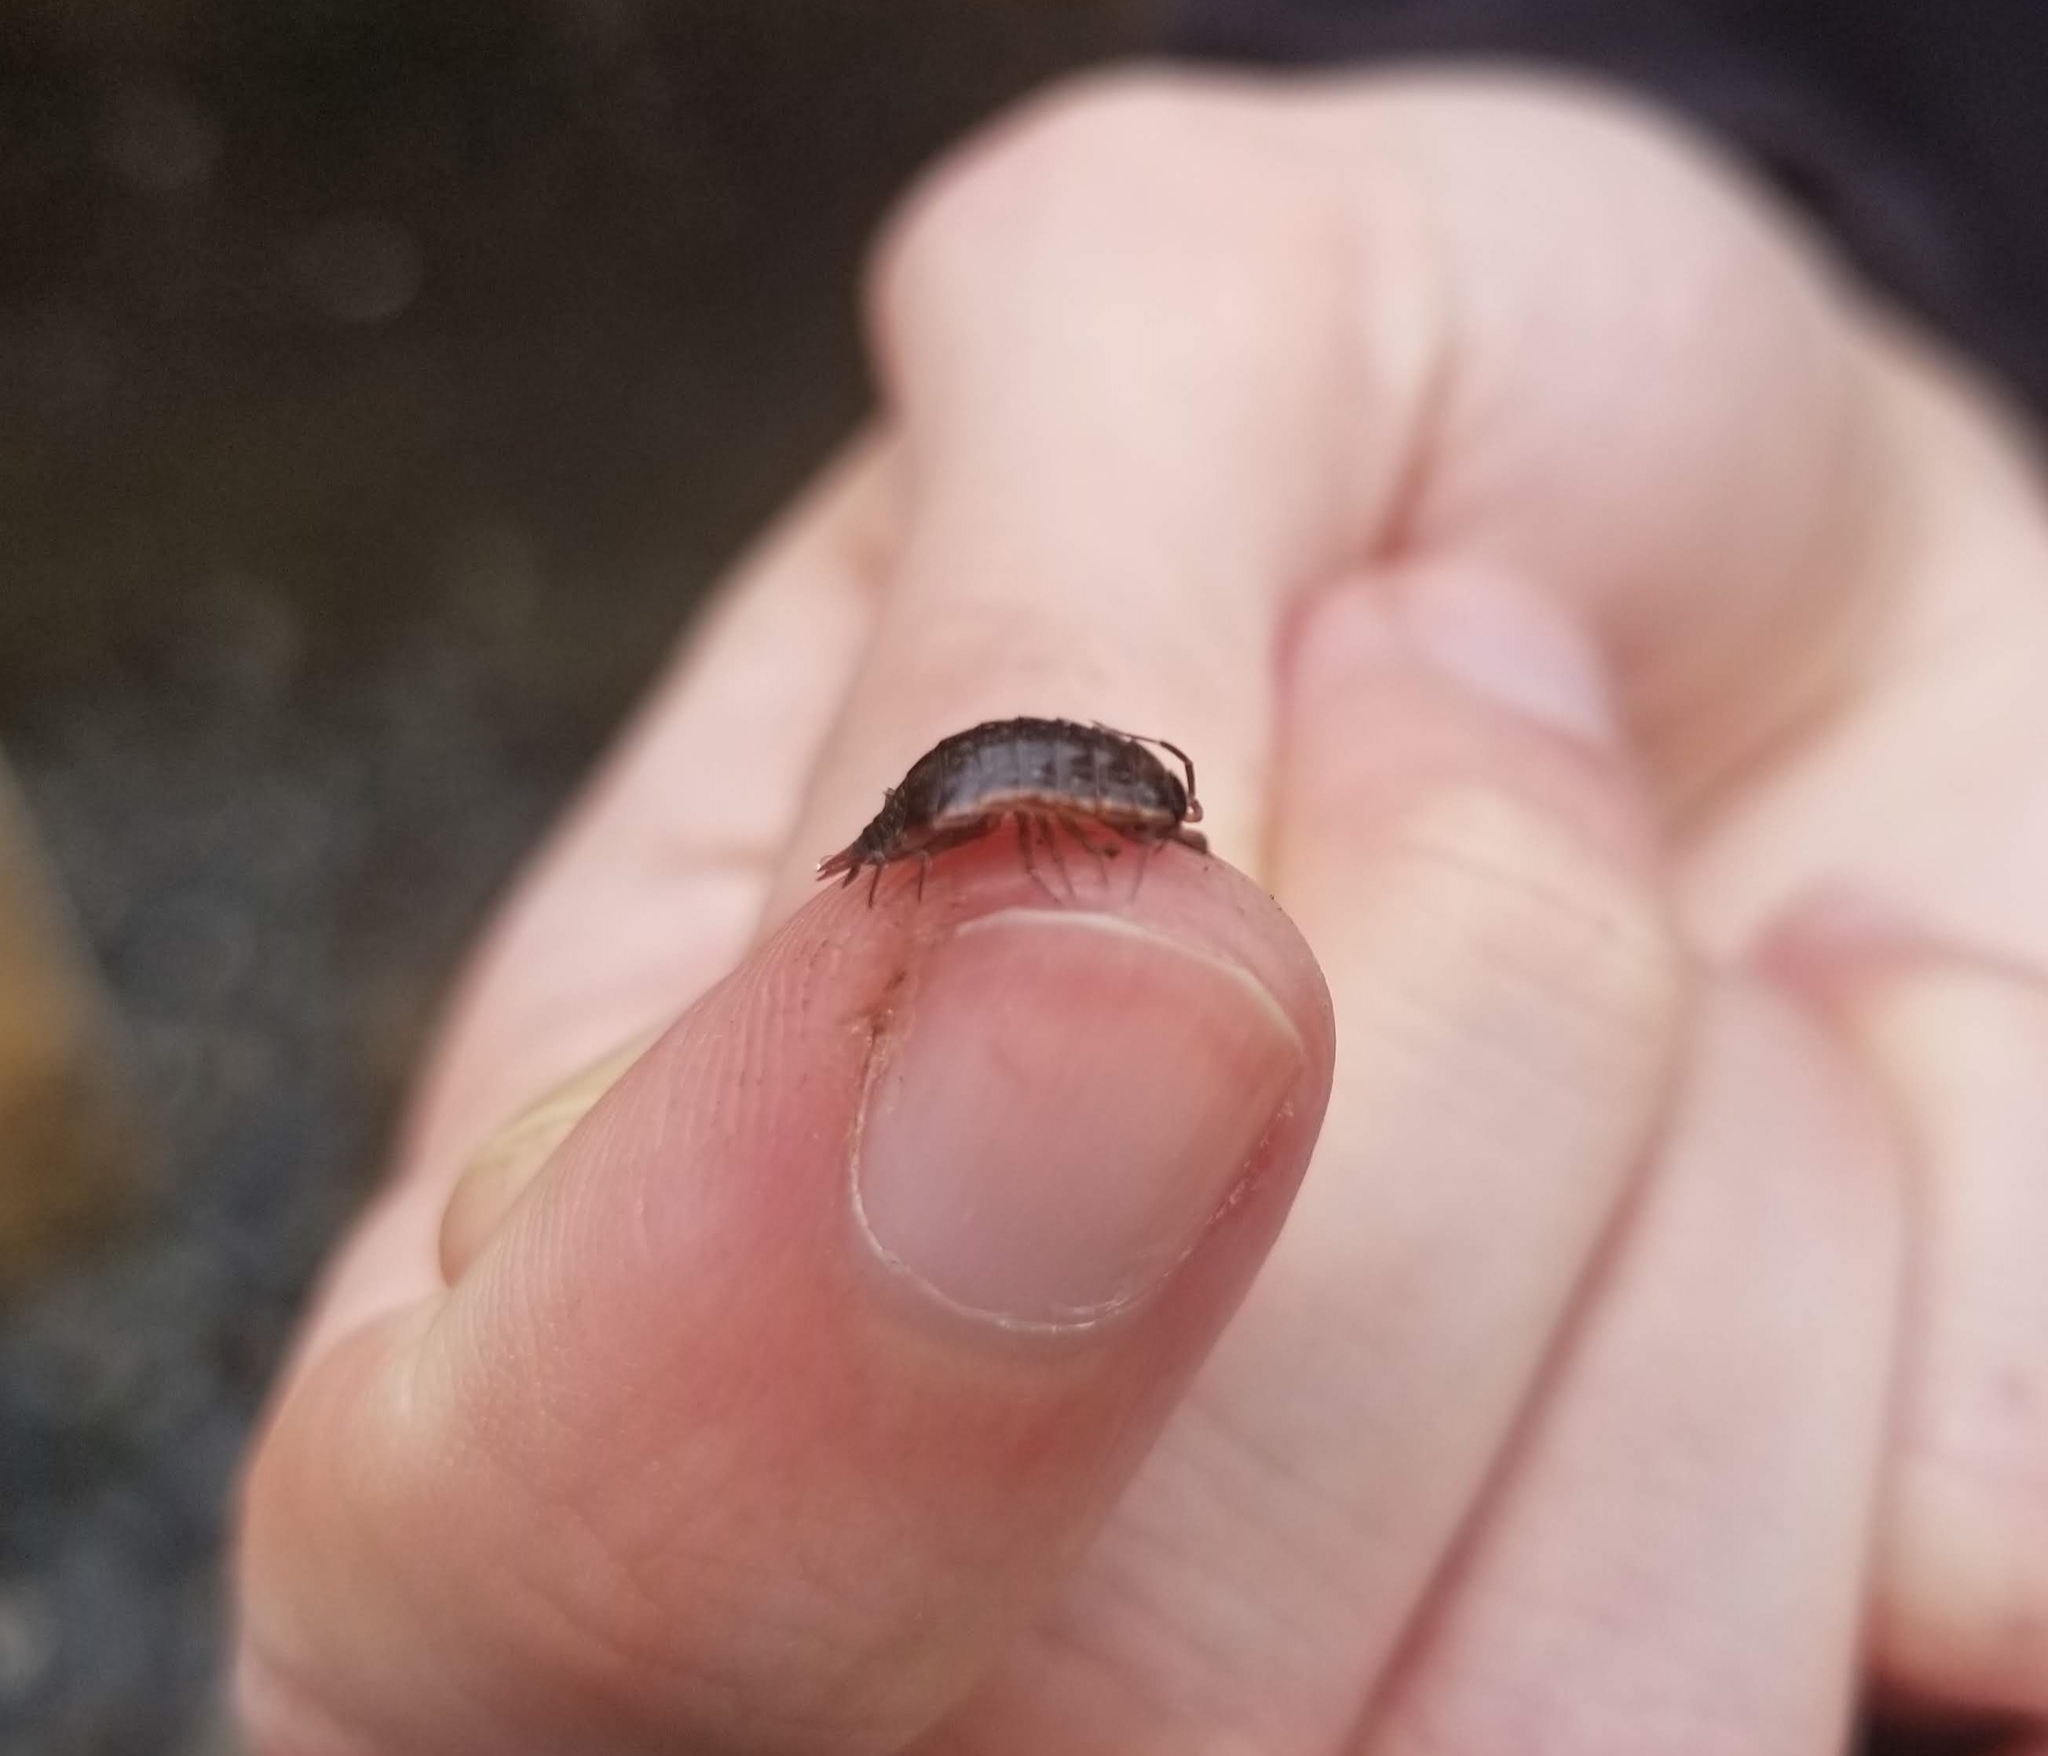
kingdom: Animalia
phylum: Arthropoda
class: Malacostraca
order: Isopoda
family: Philosciidae
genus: Philoscia
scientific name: Philoscia muscorum
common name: Common striped woodlouse
